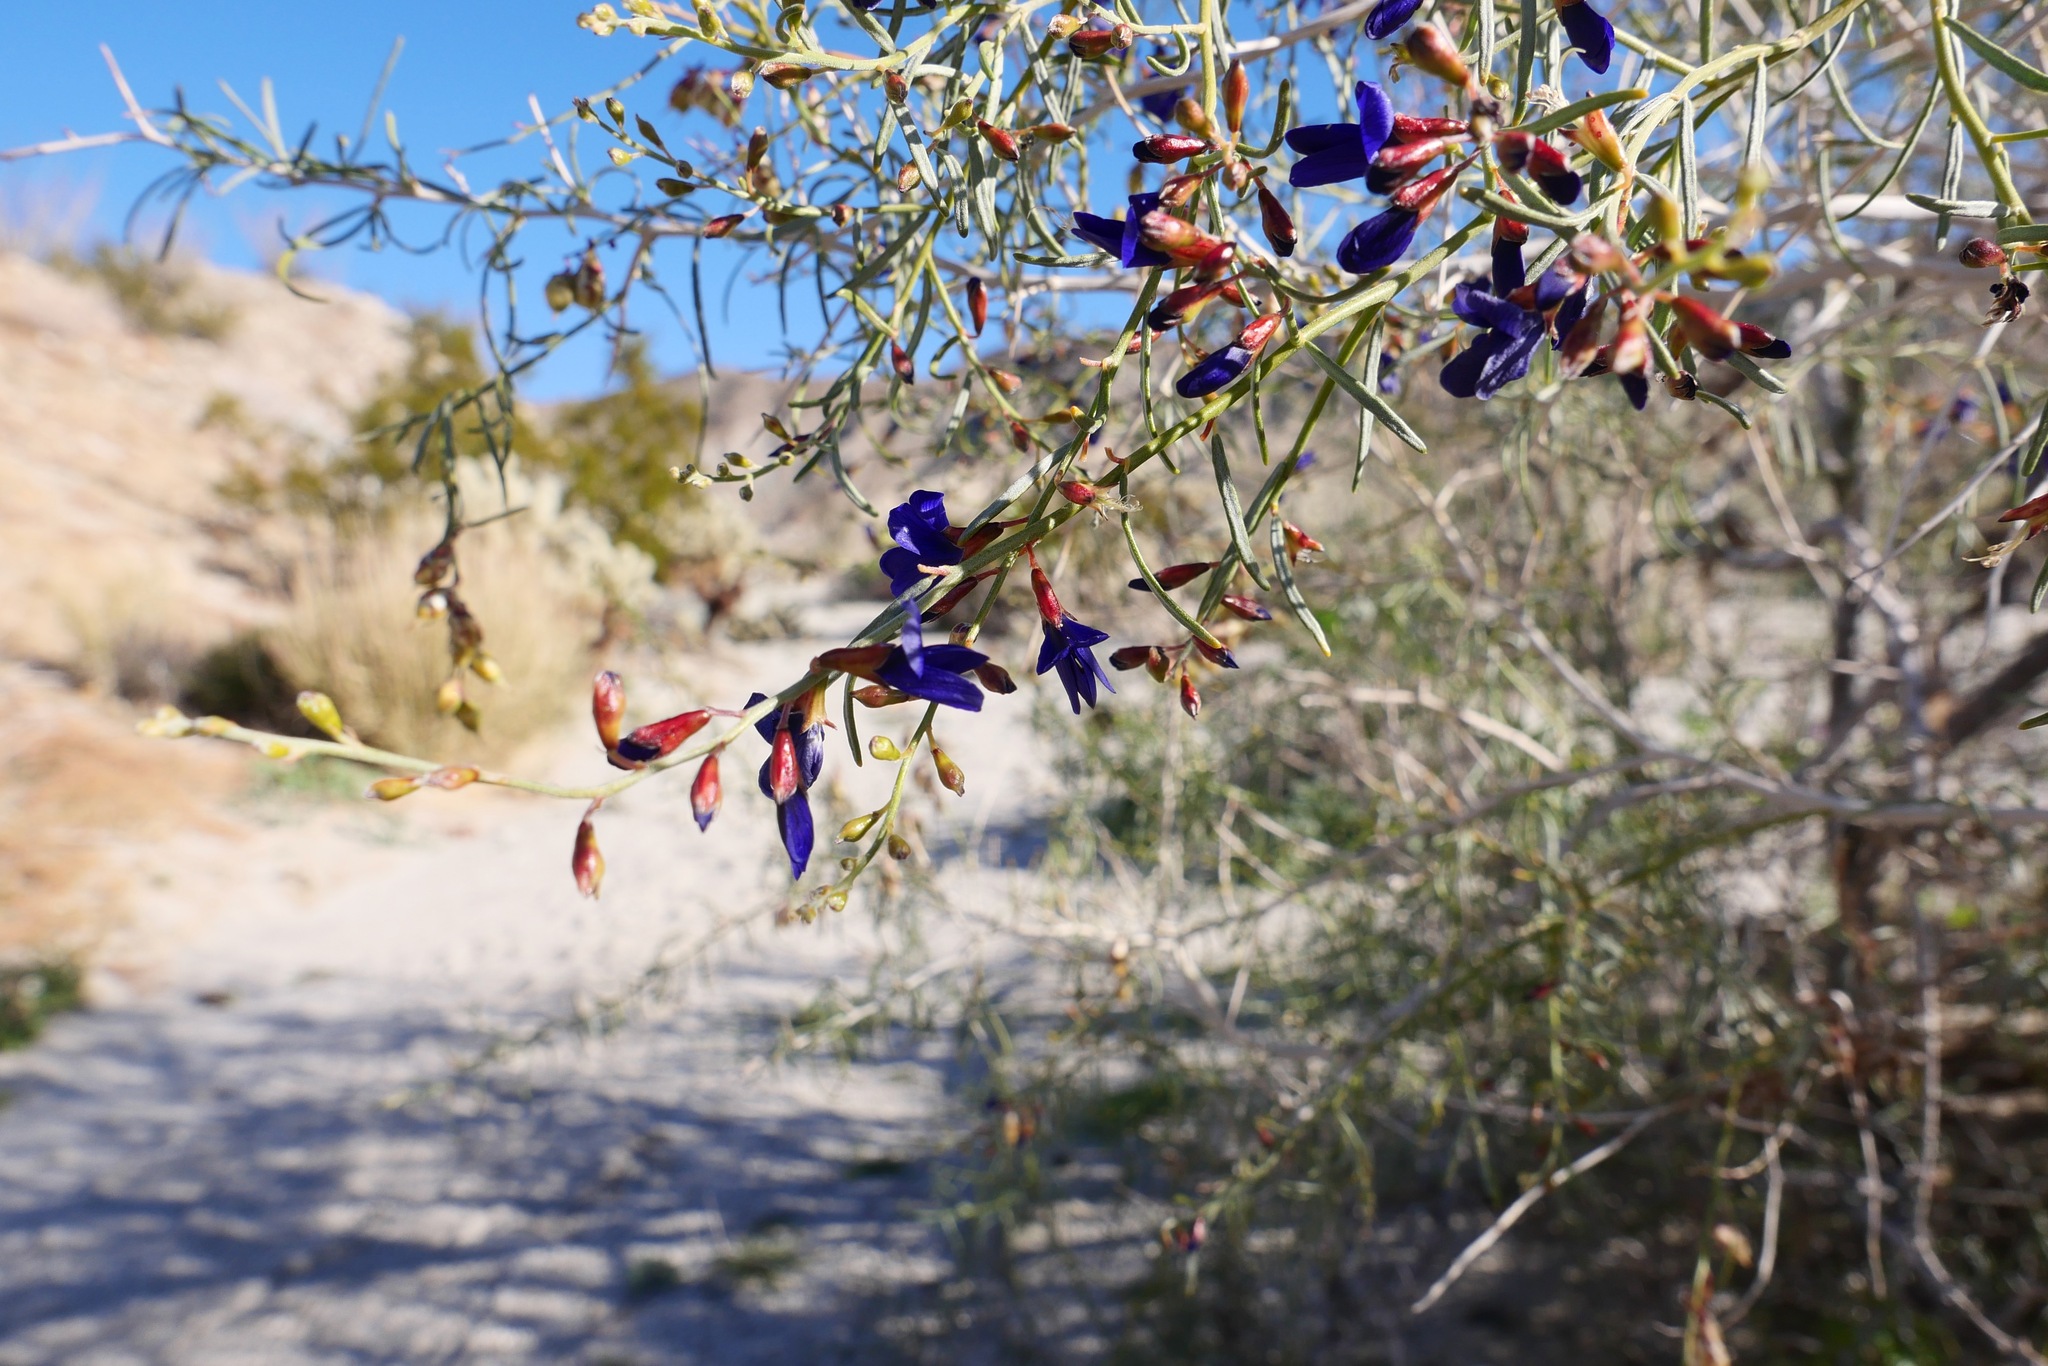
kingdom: Plantae
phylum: Tracheophyta
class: Magnoliopsida
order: Fabales
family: Fabaceae
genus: Psorothamnus
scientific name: Psorothamnus schottii
